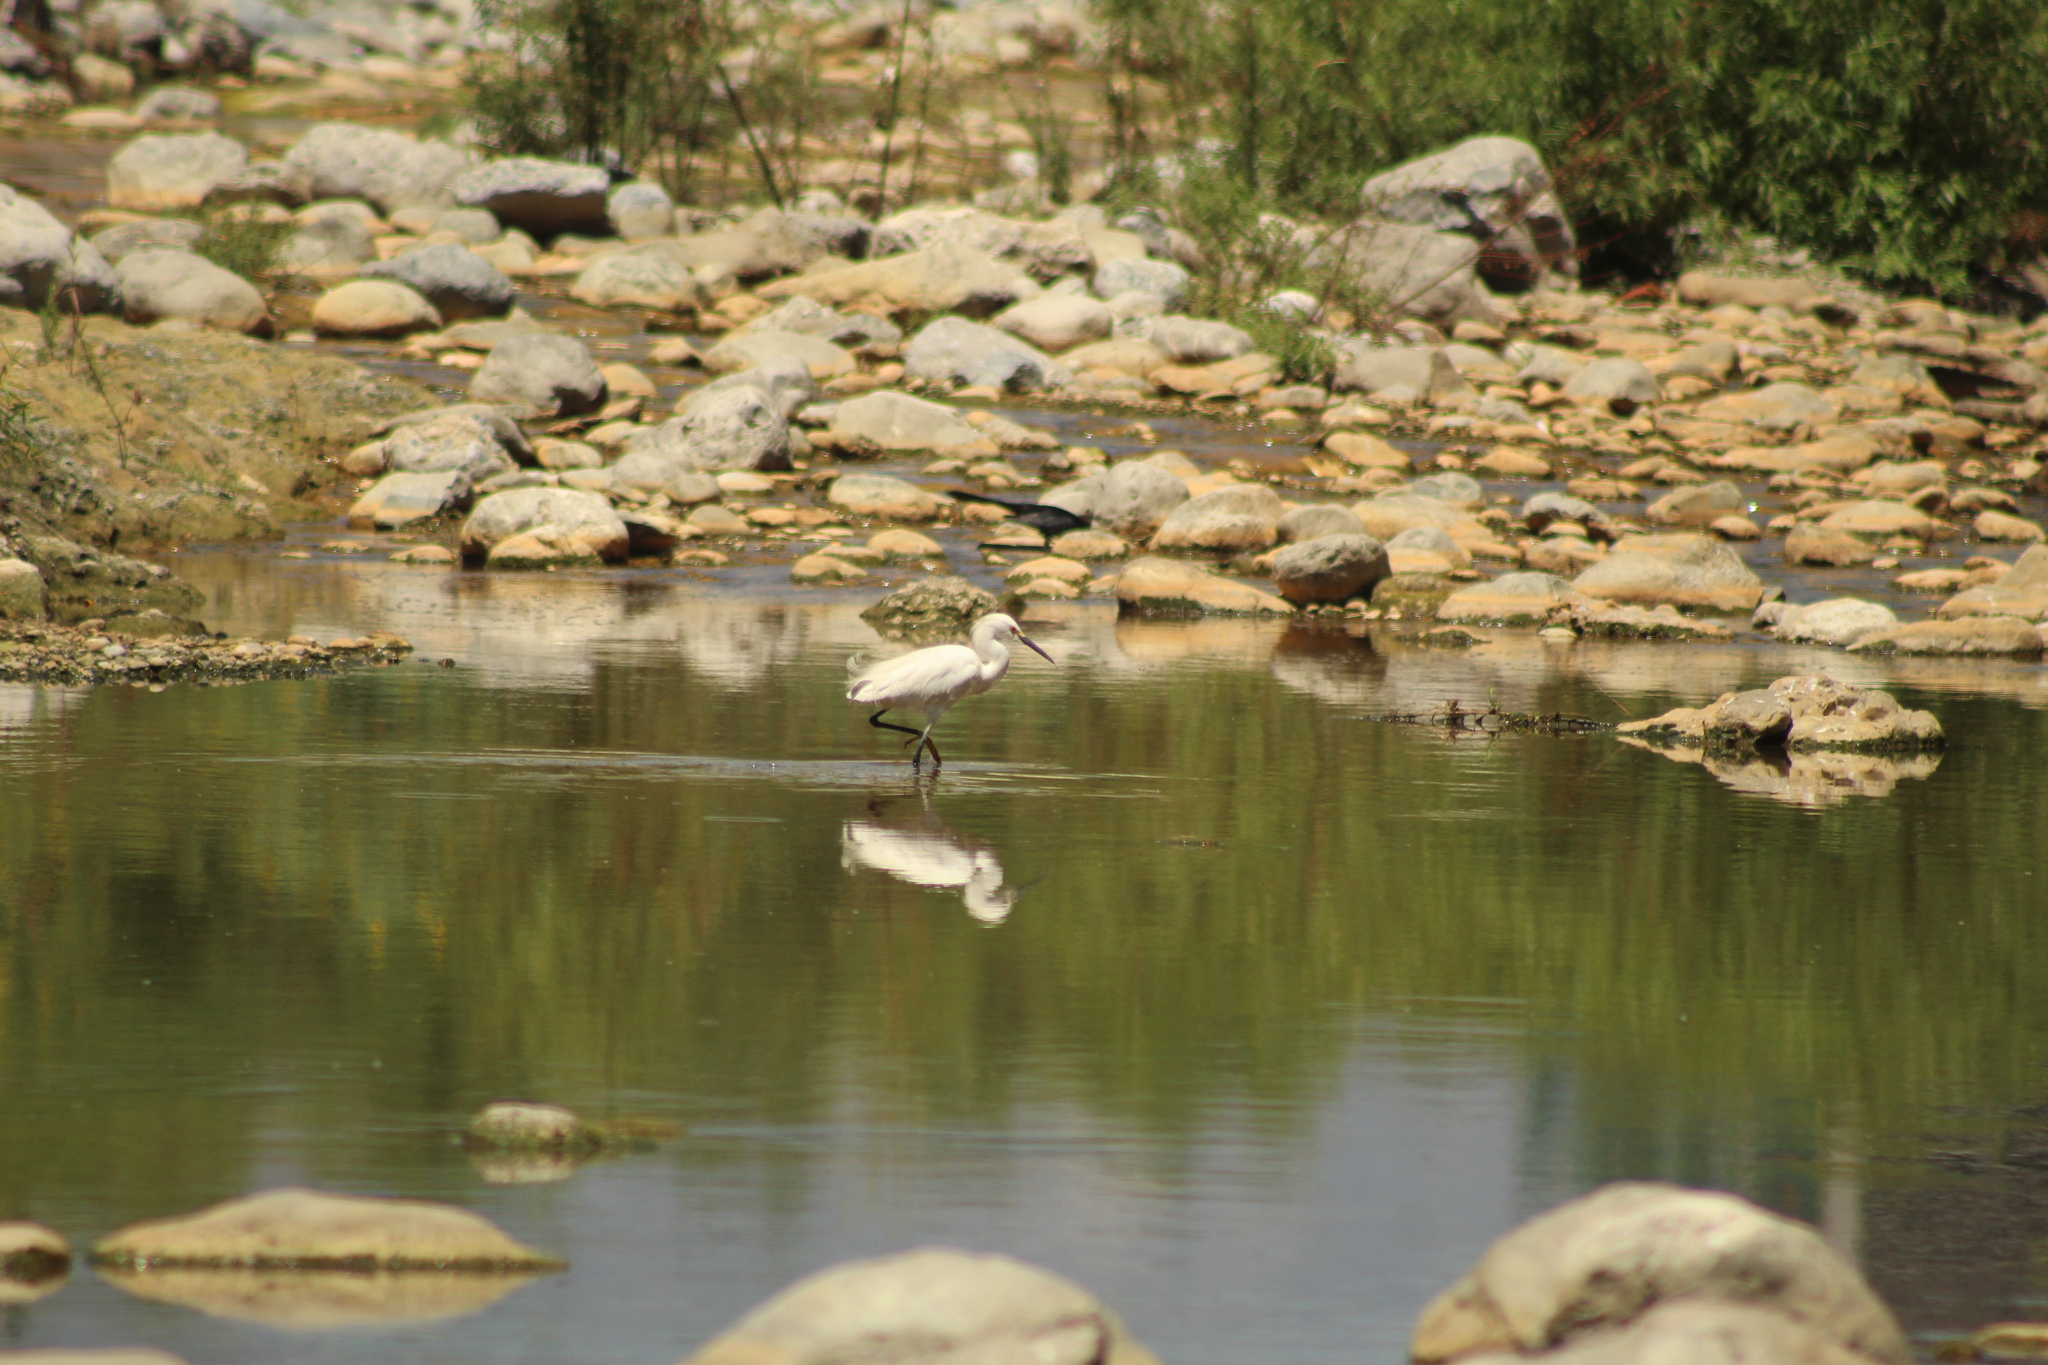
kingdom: Animalia
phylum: Chordata
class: Aves
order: Pelecaniformes
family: Ardeidae
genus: Egretta
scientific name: Egretta thula
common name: Snowy egret
